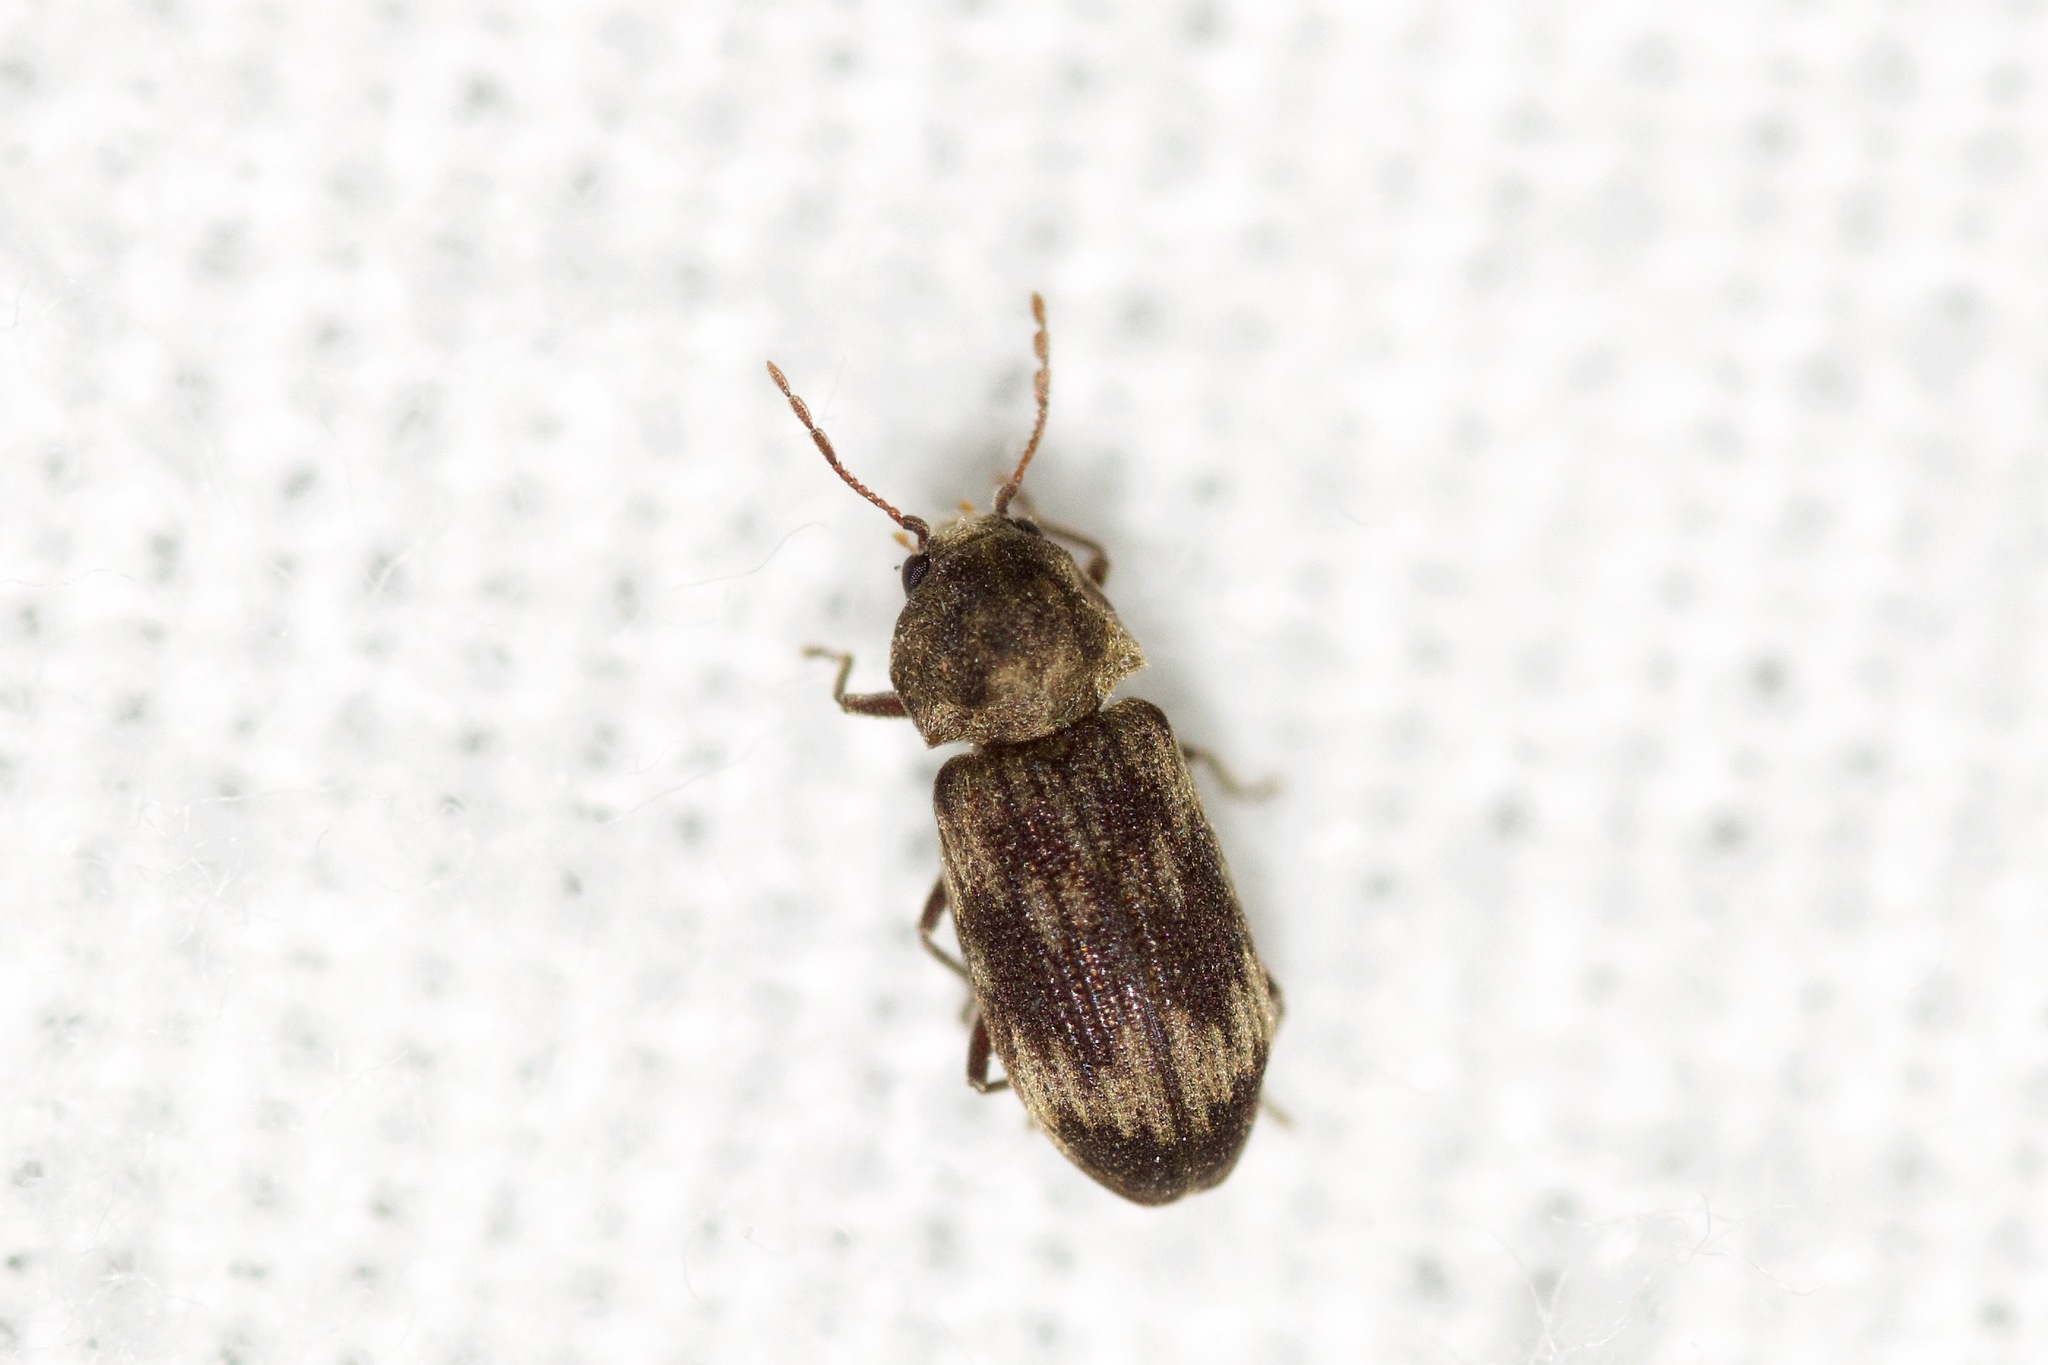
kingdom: Animalia
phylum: Arthropoda
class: Insecta
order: Coleoptera
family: Anobiidae
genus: Hadrobregmus
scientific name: Hadrobregmus notatus
